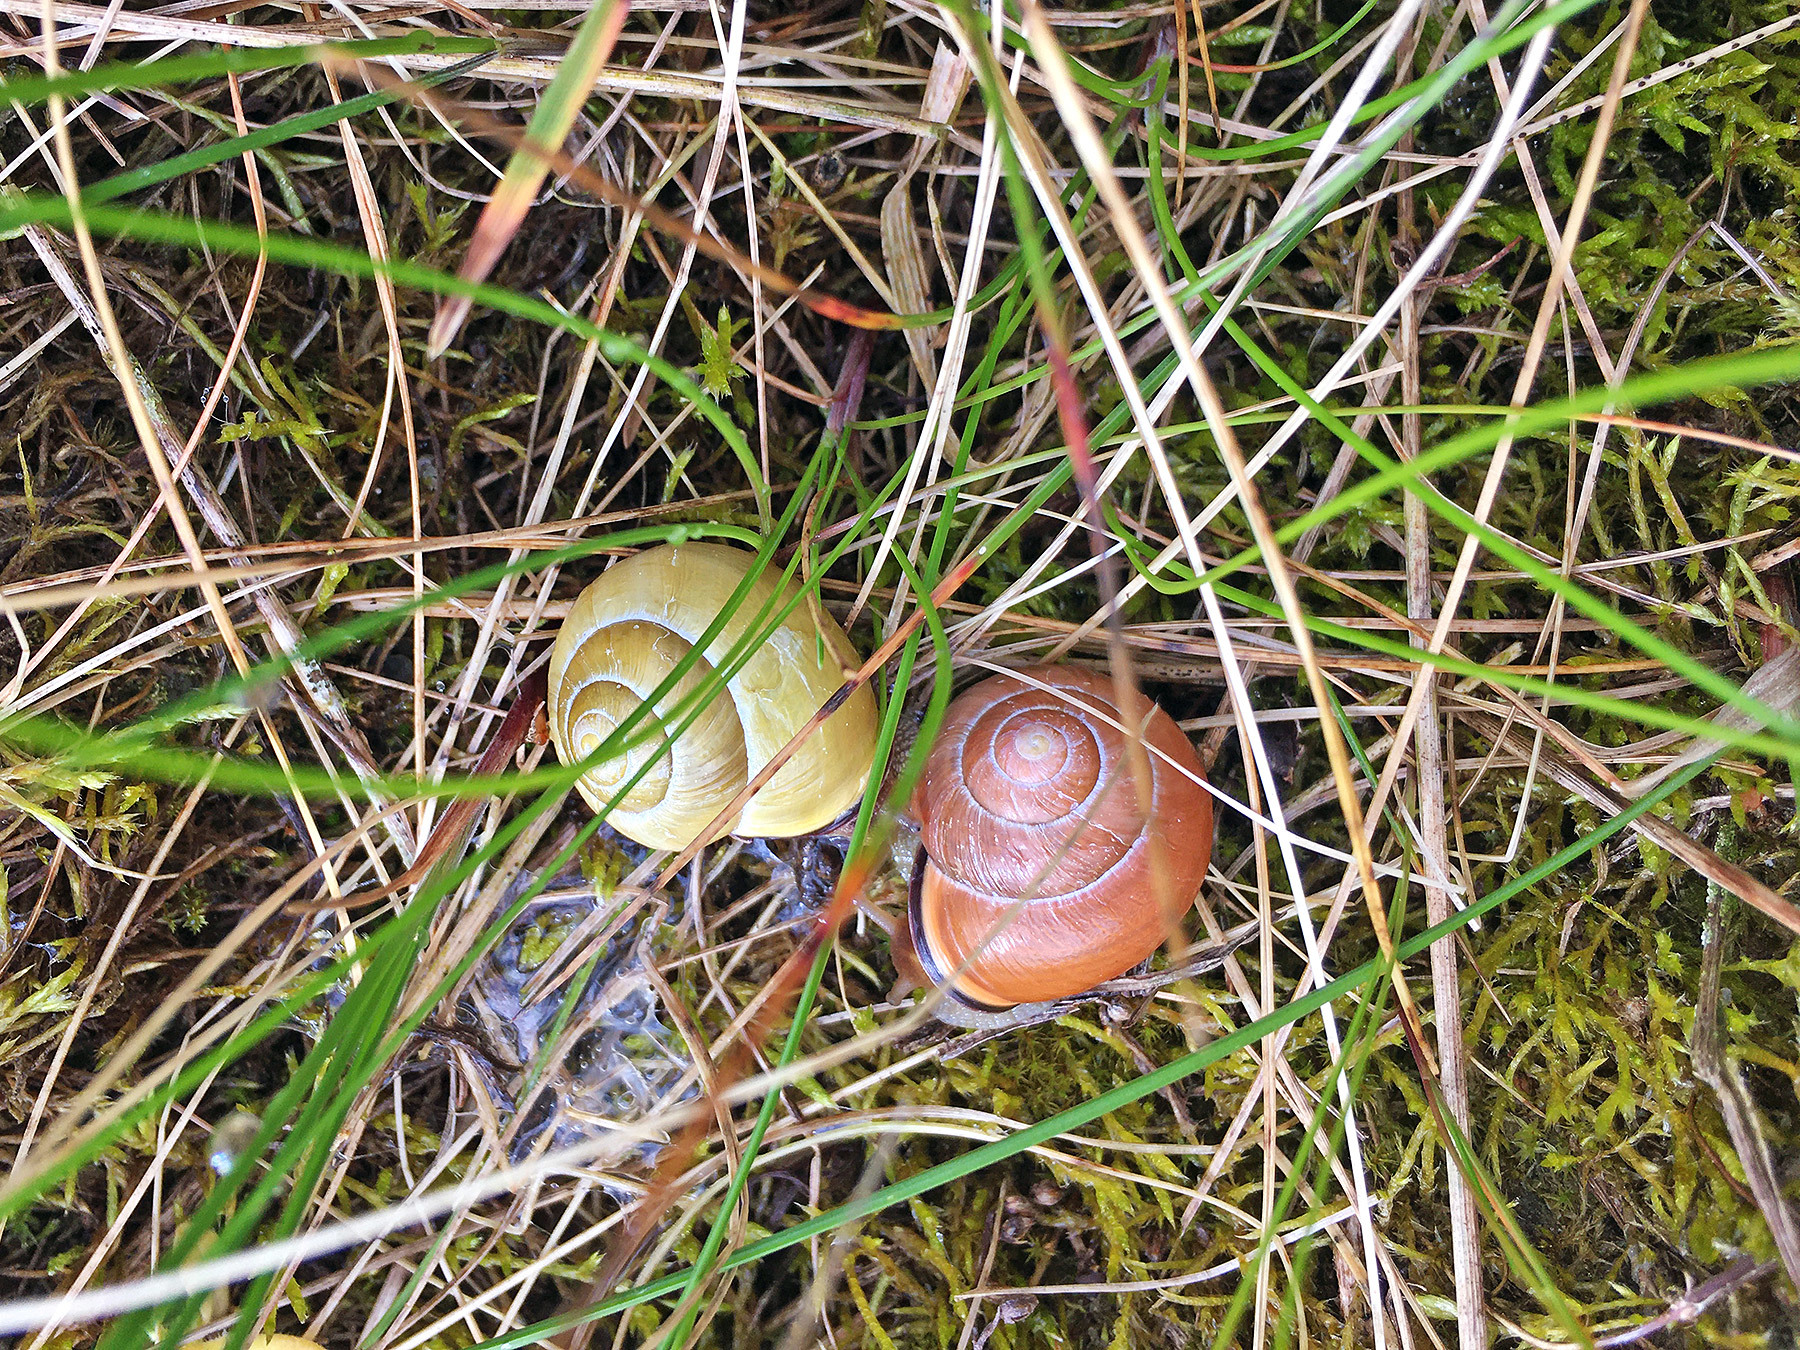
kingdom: Animalia
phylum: Mollusca
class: Gastropoda
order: Stylommatophora
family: Helicidae
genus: Cepaea
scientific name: Cepaea nemoralis
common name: Grovesnail
